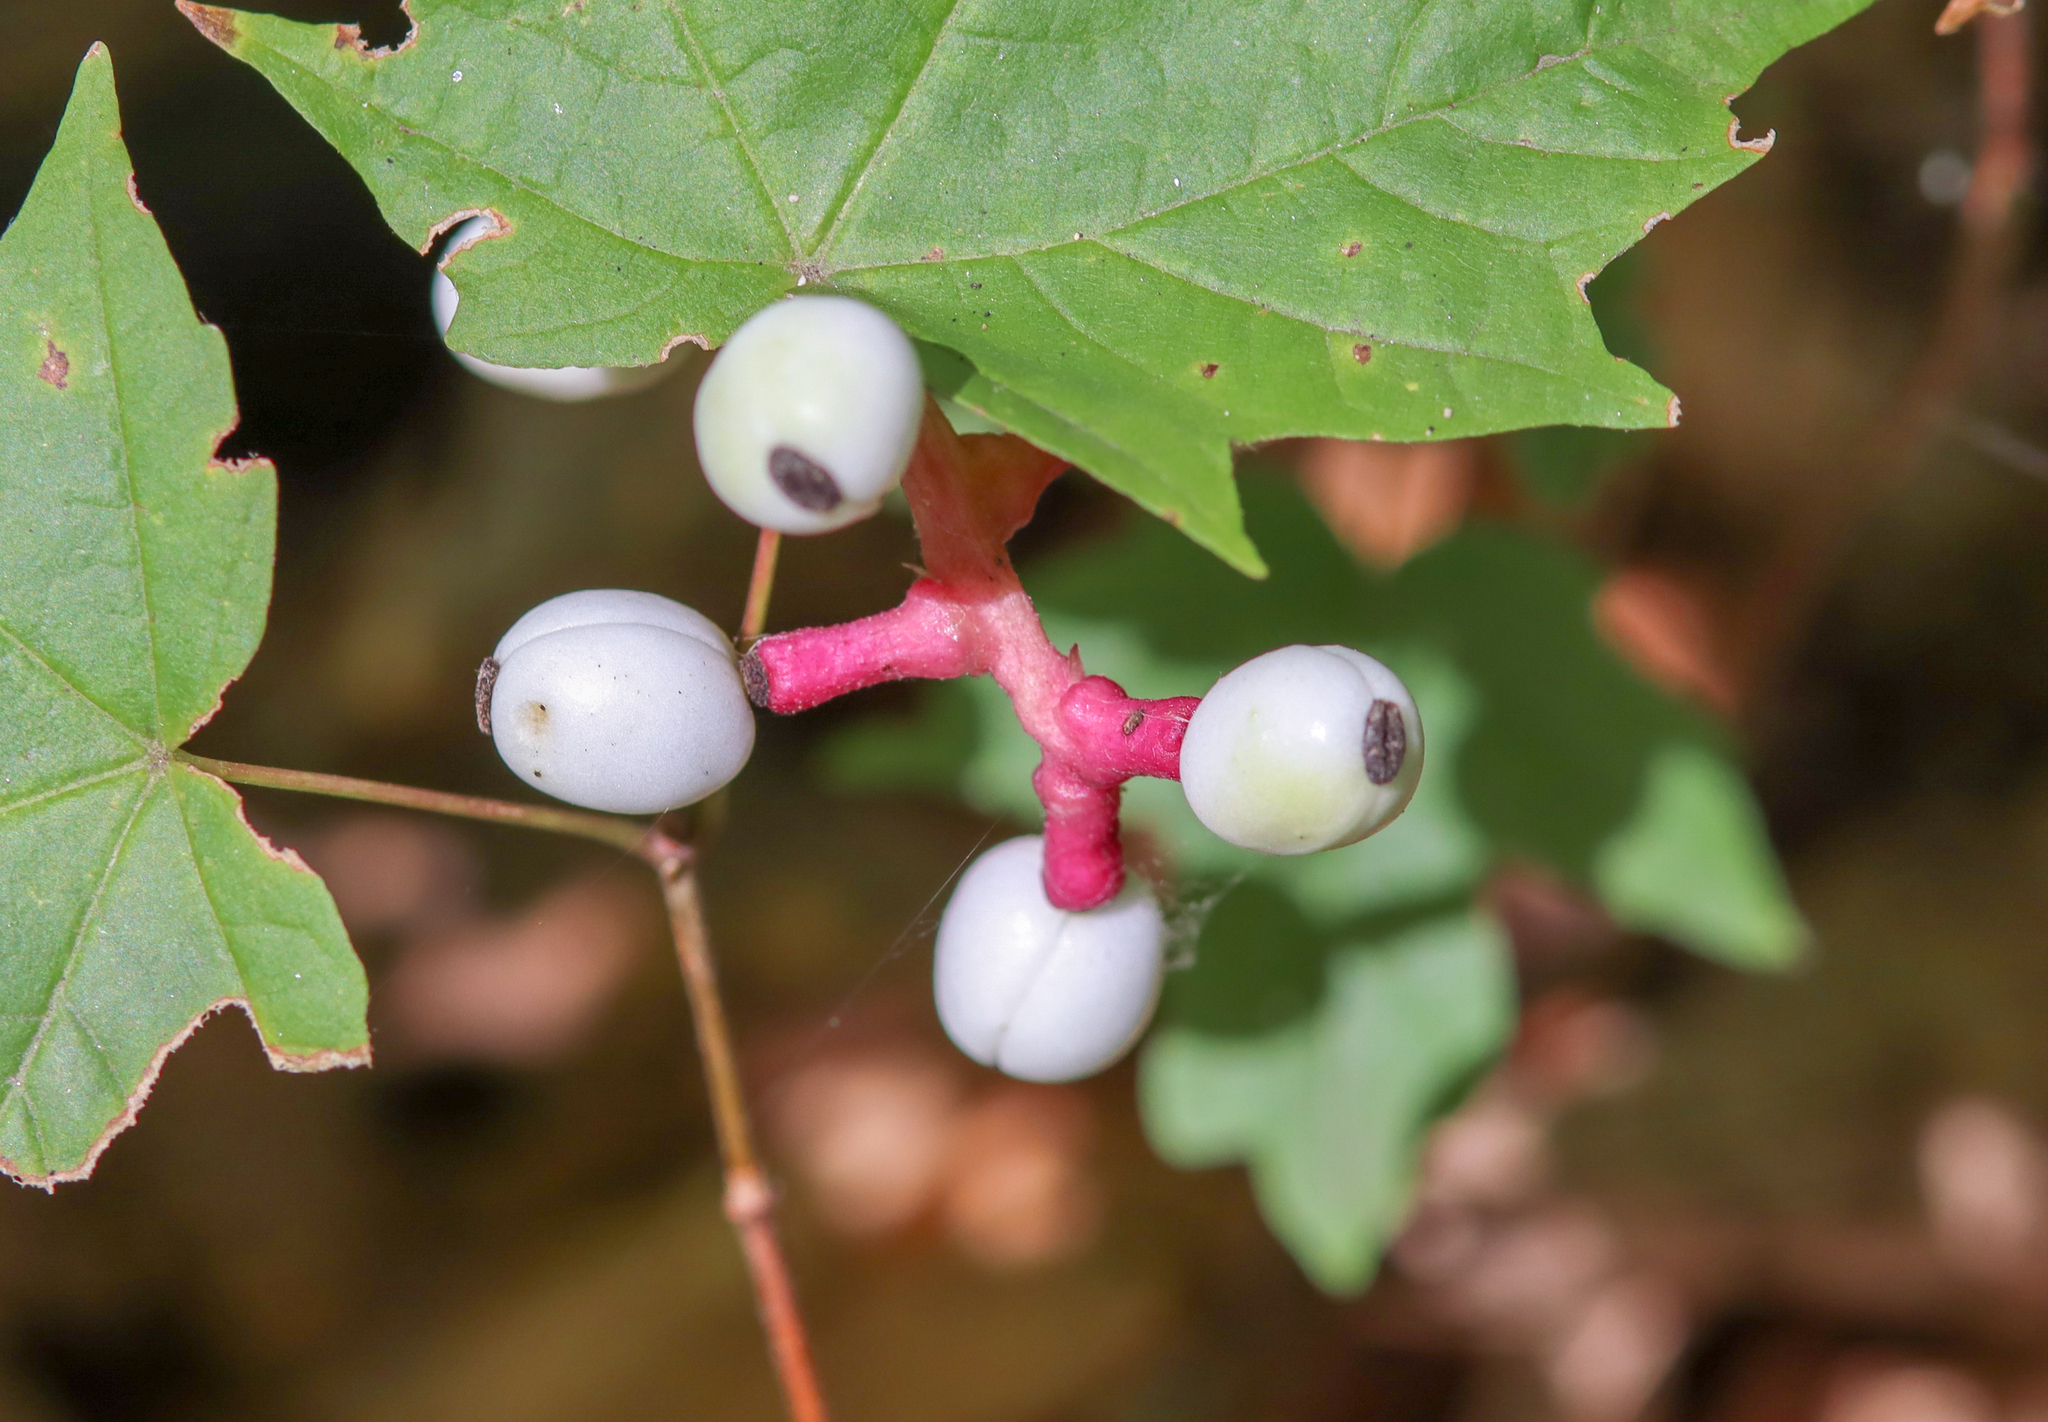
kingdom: Plantae
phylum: Tracheophyta
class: Magnoliopsida
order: Ranunculales
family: Ranunculaceae
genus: Actaea
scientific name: Actaea pachypoda
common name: Doll's-eyes
